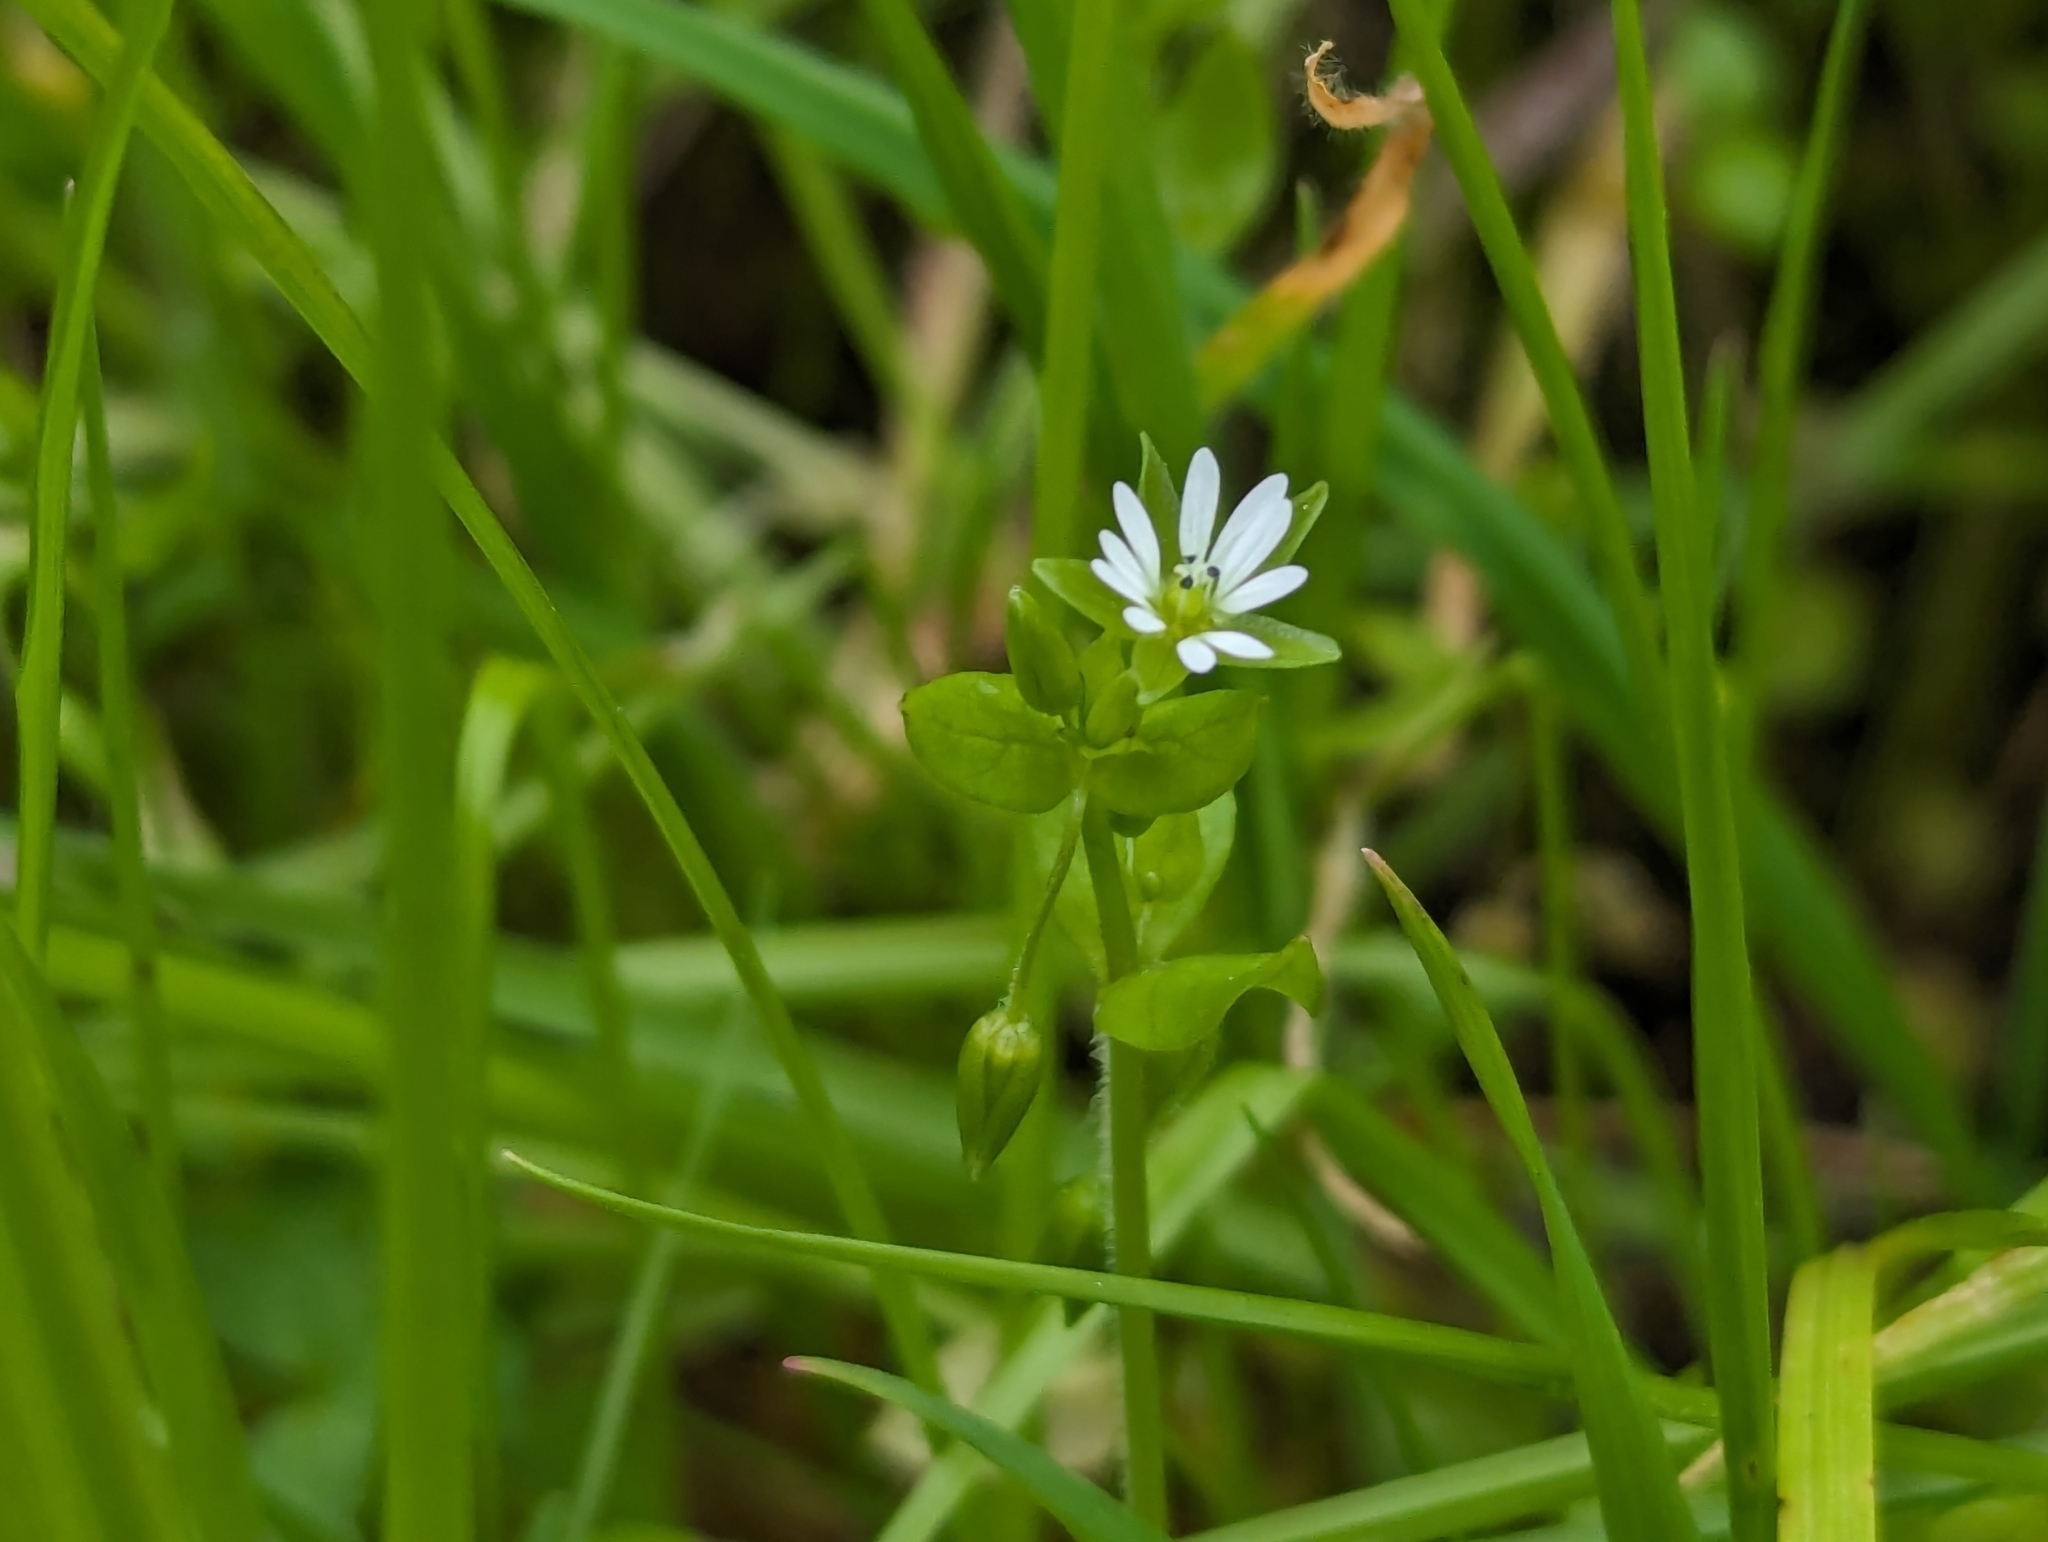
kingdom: Plantae
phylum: Tracheophyta
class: Magnoliopsida
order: Caryophyllales
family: Caryophyllaceae
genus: Stellaria
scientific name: Stellaria media
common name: Common chickweed
